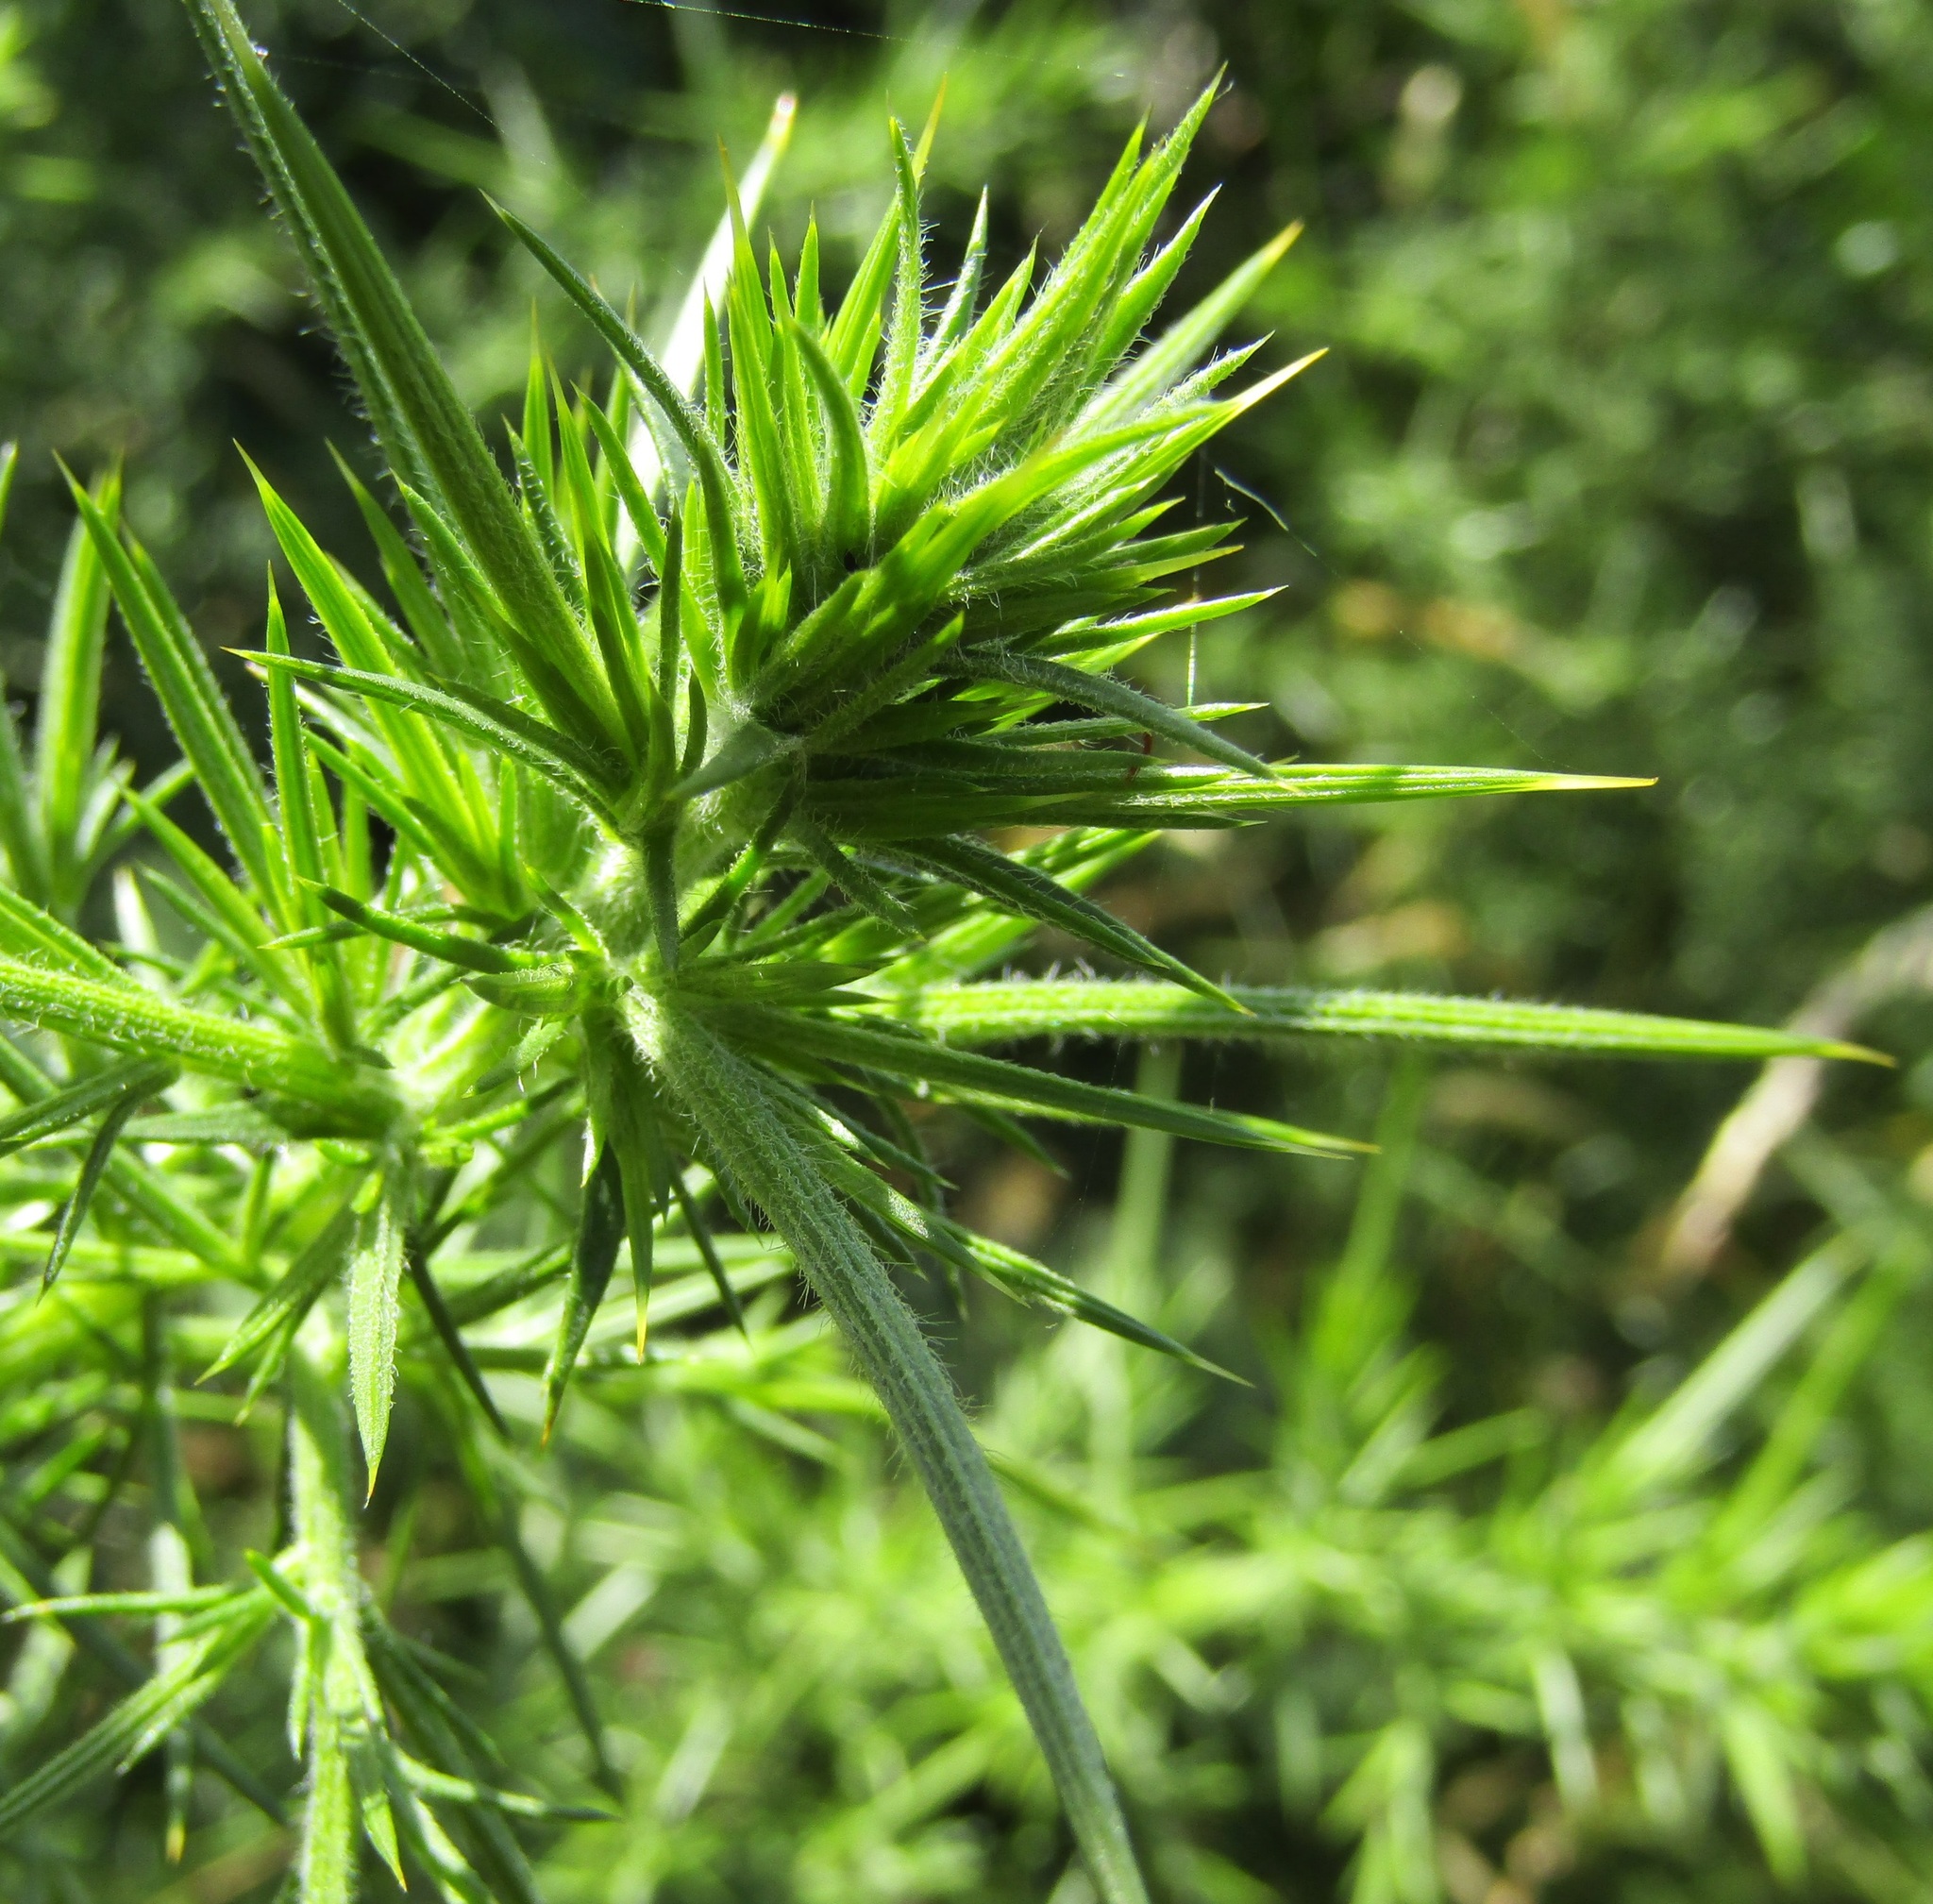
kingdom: Plantae
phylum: Tracheophyta
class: Magnoliopsida
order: Fabales
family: Fabaceae
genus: Ulex
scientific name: Ulex europaeus
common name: Common gorse
